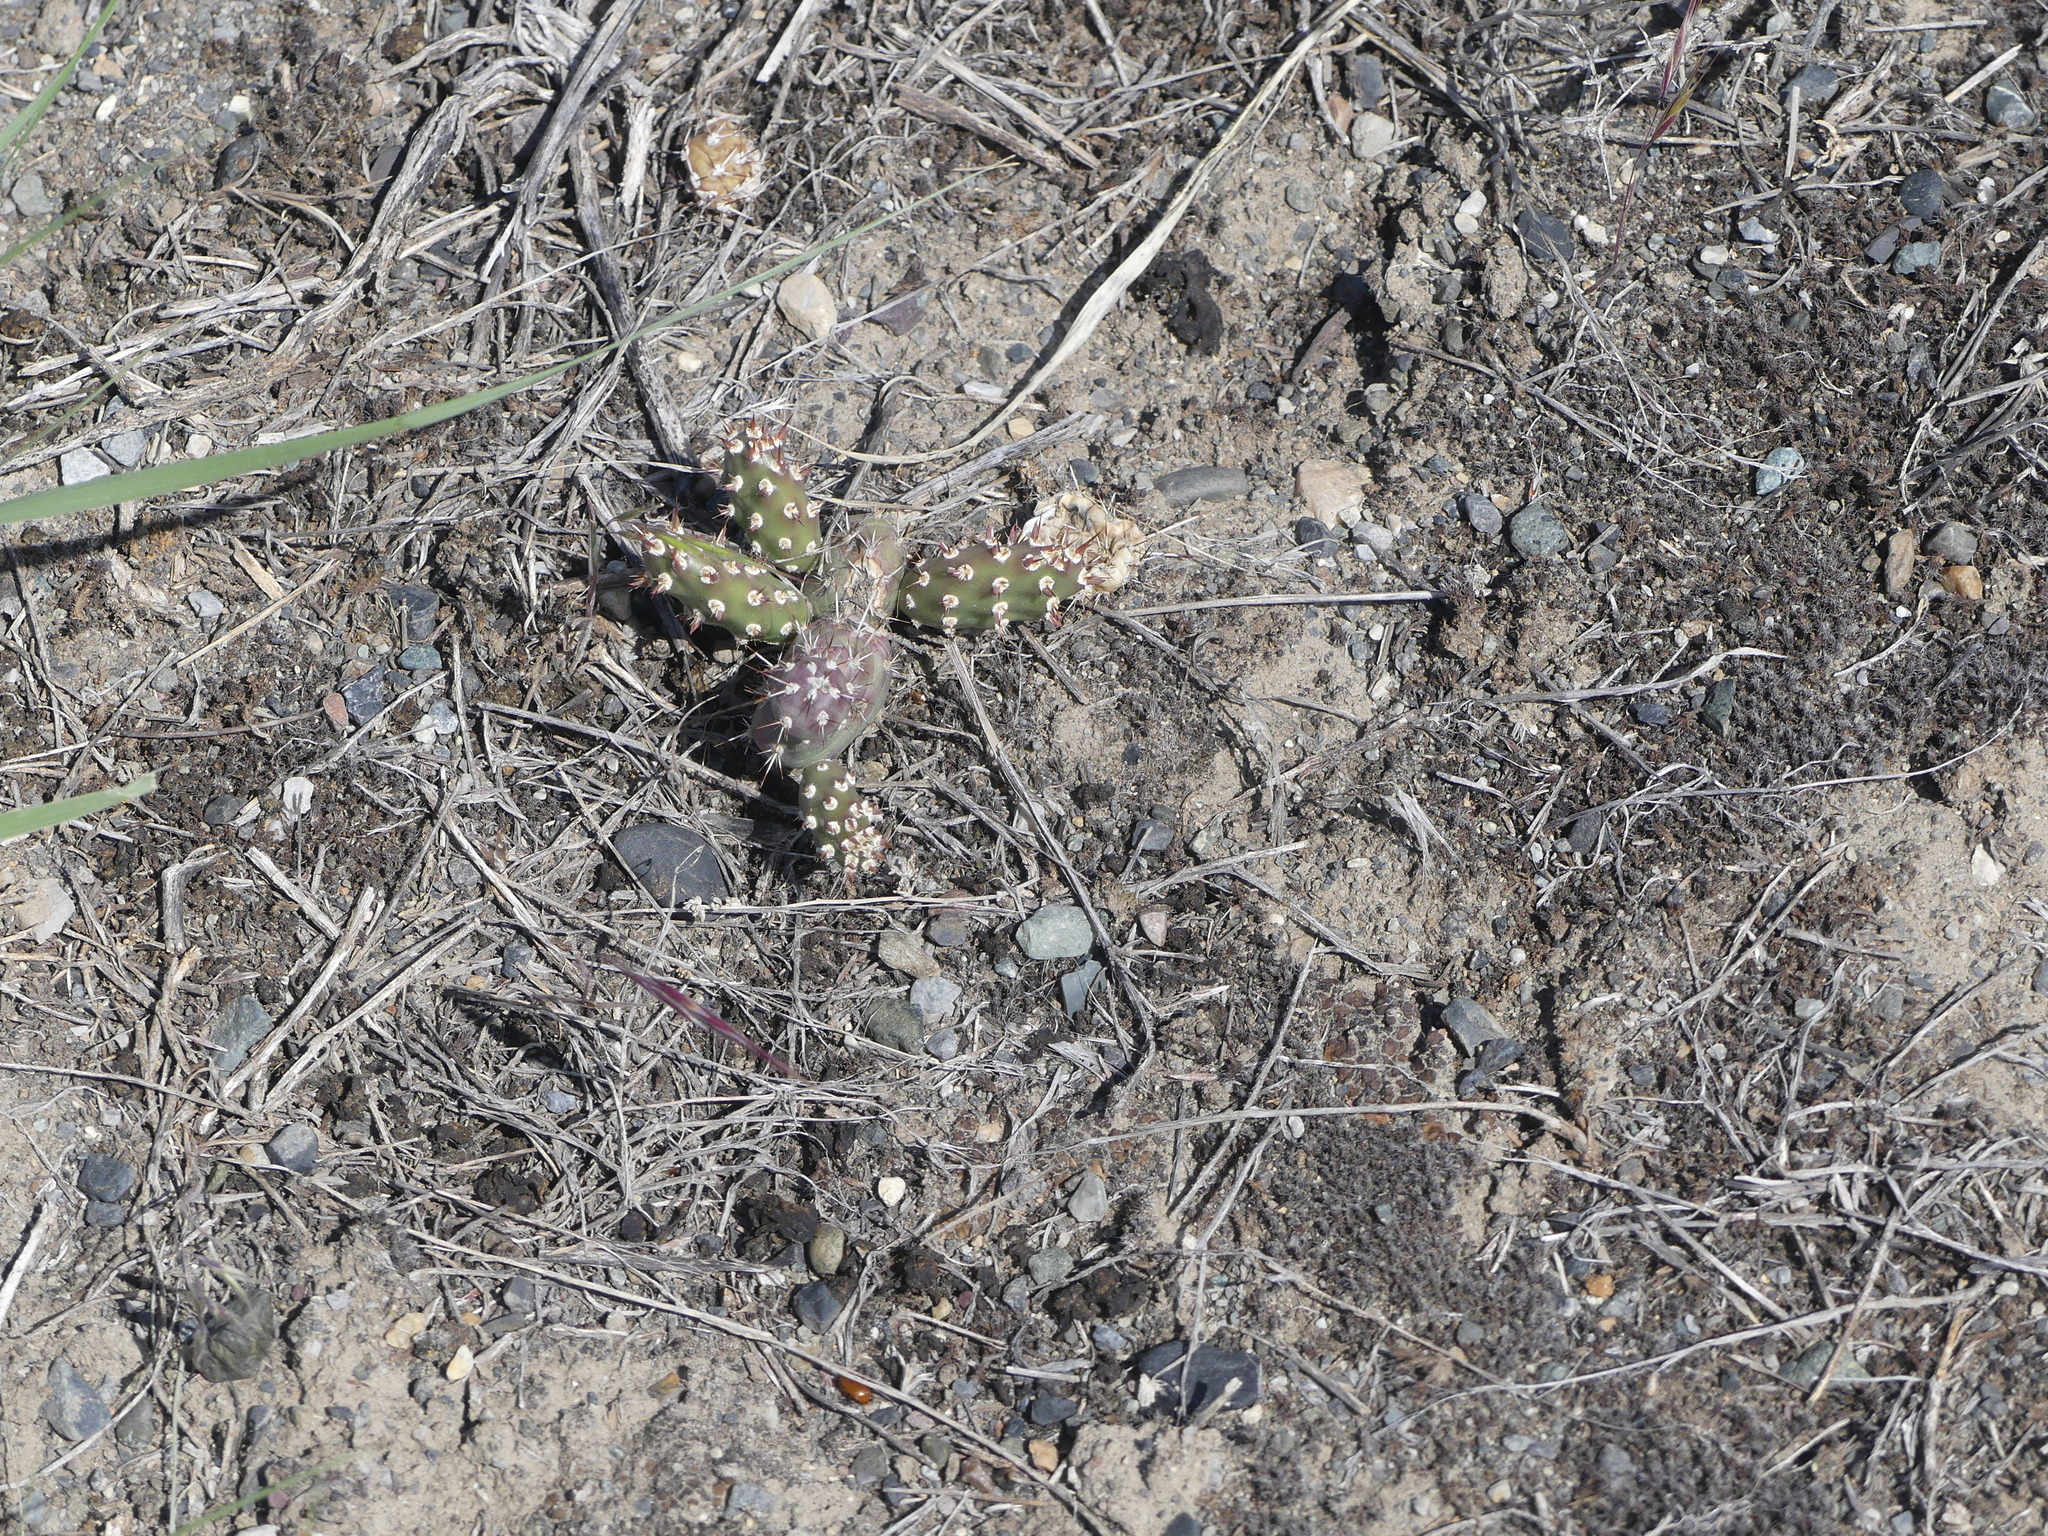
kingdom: Plantae
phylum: Tracheophyta
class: Magnoliopsida
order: Caryophyllales
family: Cactaceae
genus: Opuntia
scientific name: Opuntia fragilis
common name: Brittle cactus
